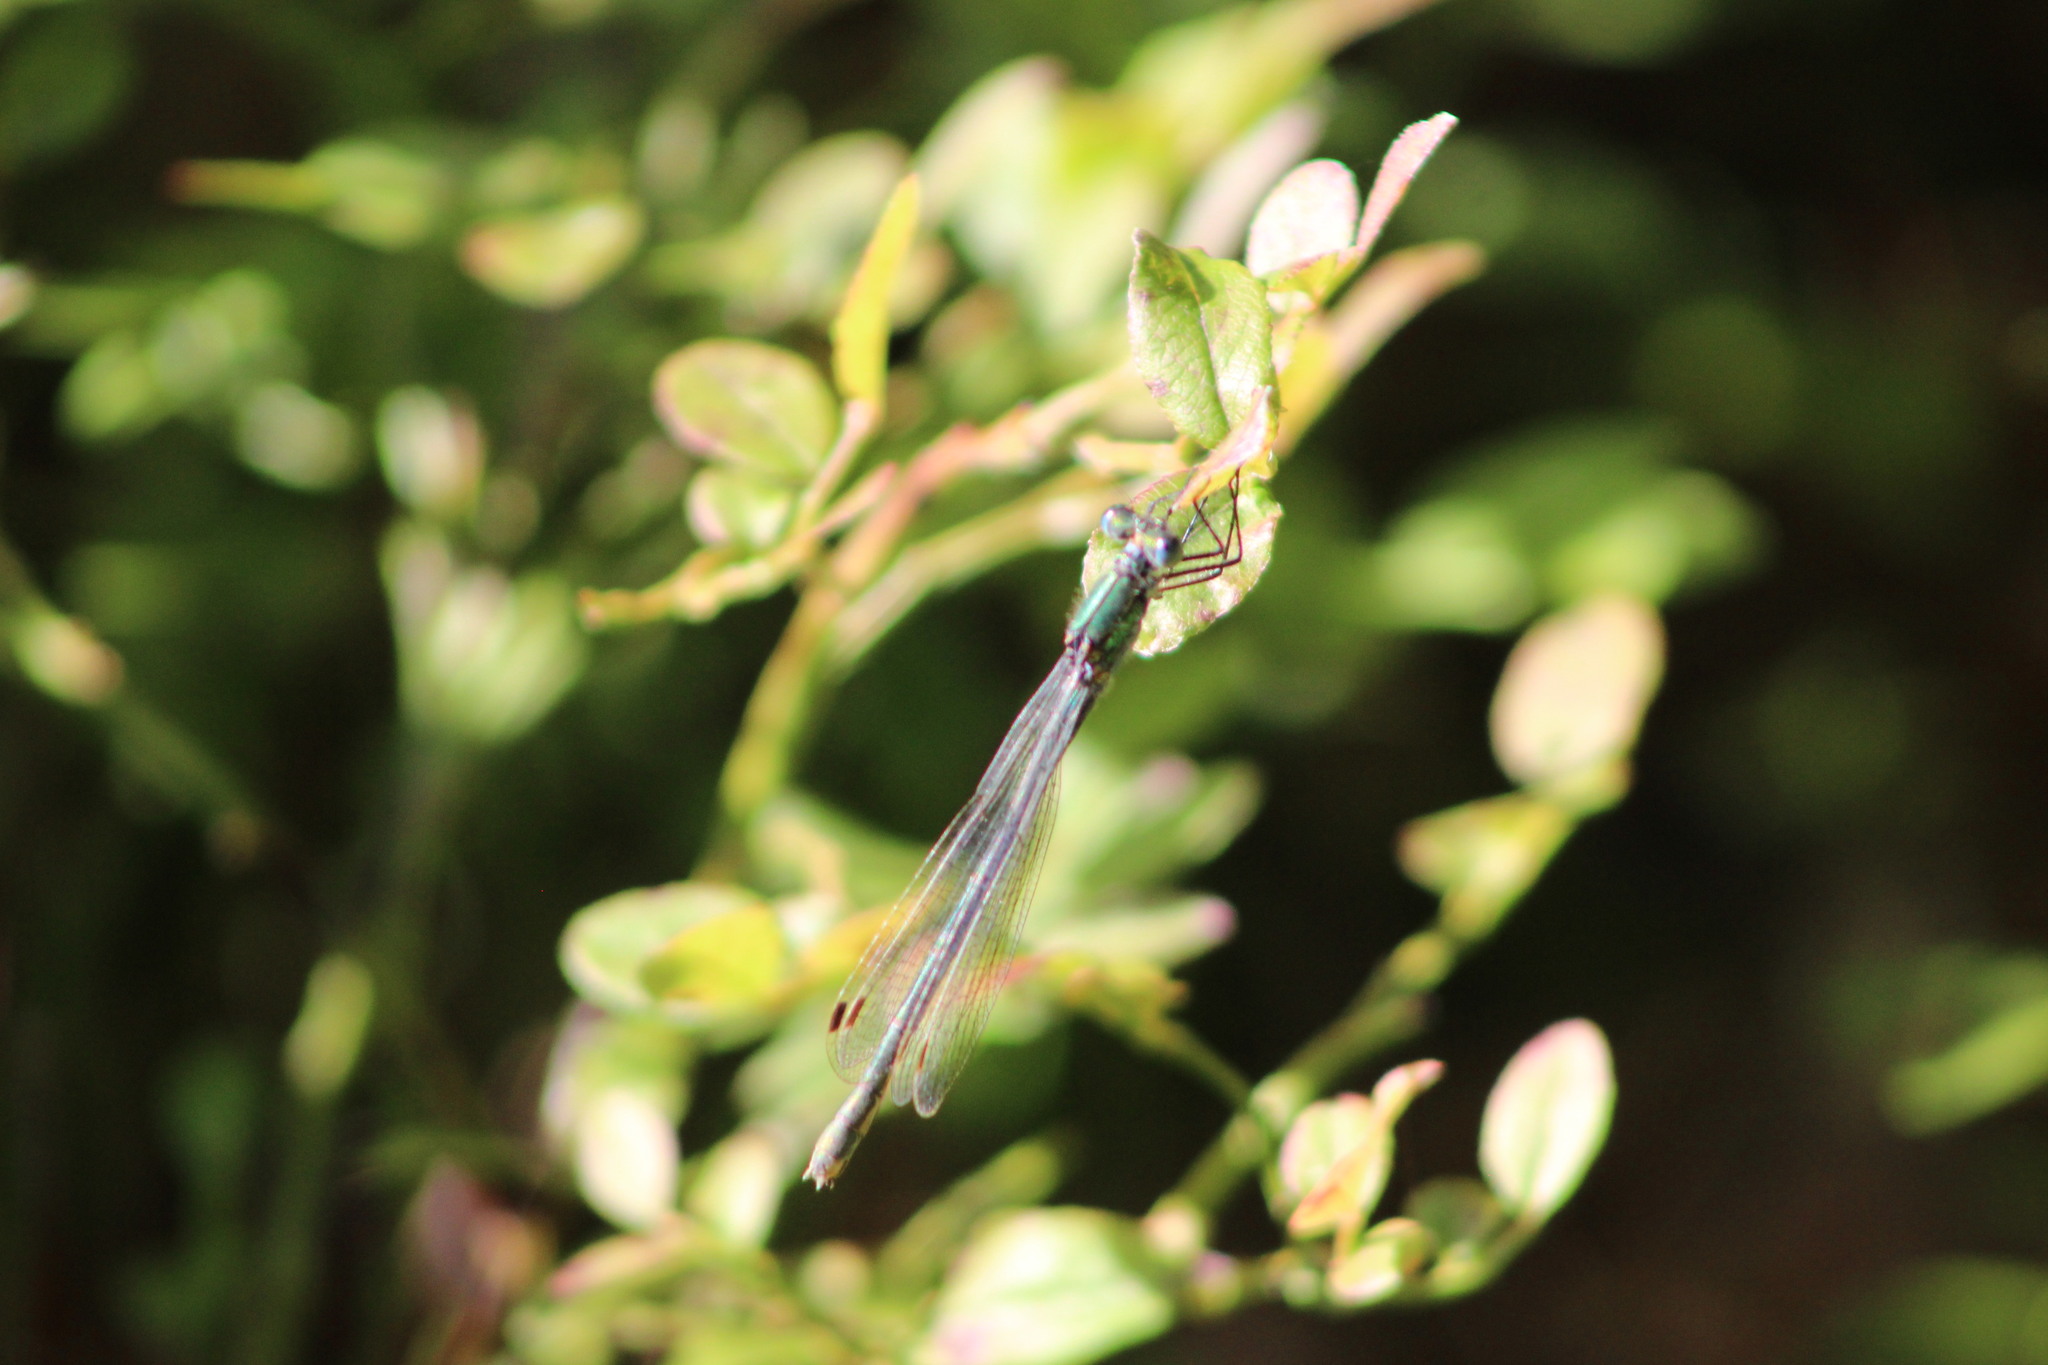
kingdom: Animalia
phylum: Arthropoda
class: Insecta
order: Odonata
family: Lestidae
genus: Lestes
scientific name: Lestes dryas
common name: Scarce emerald damselfly
